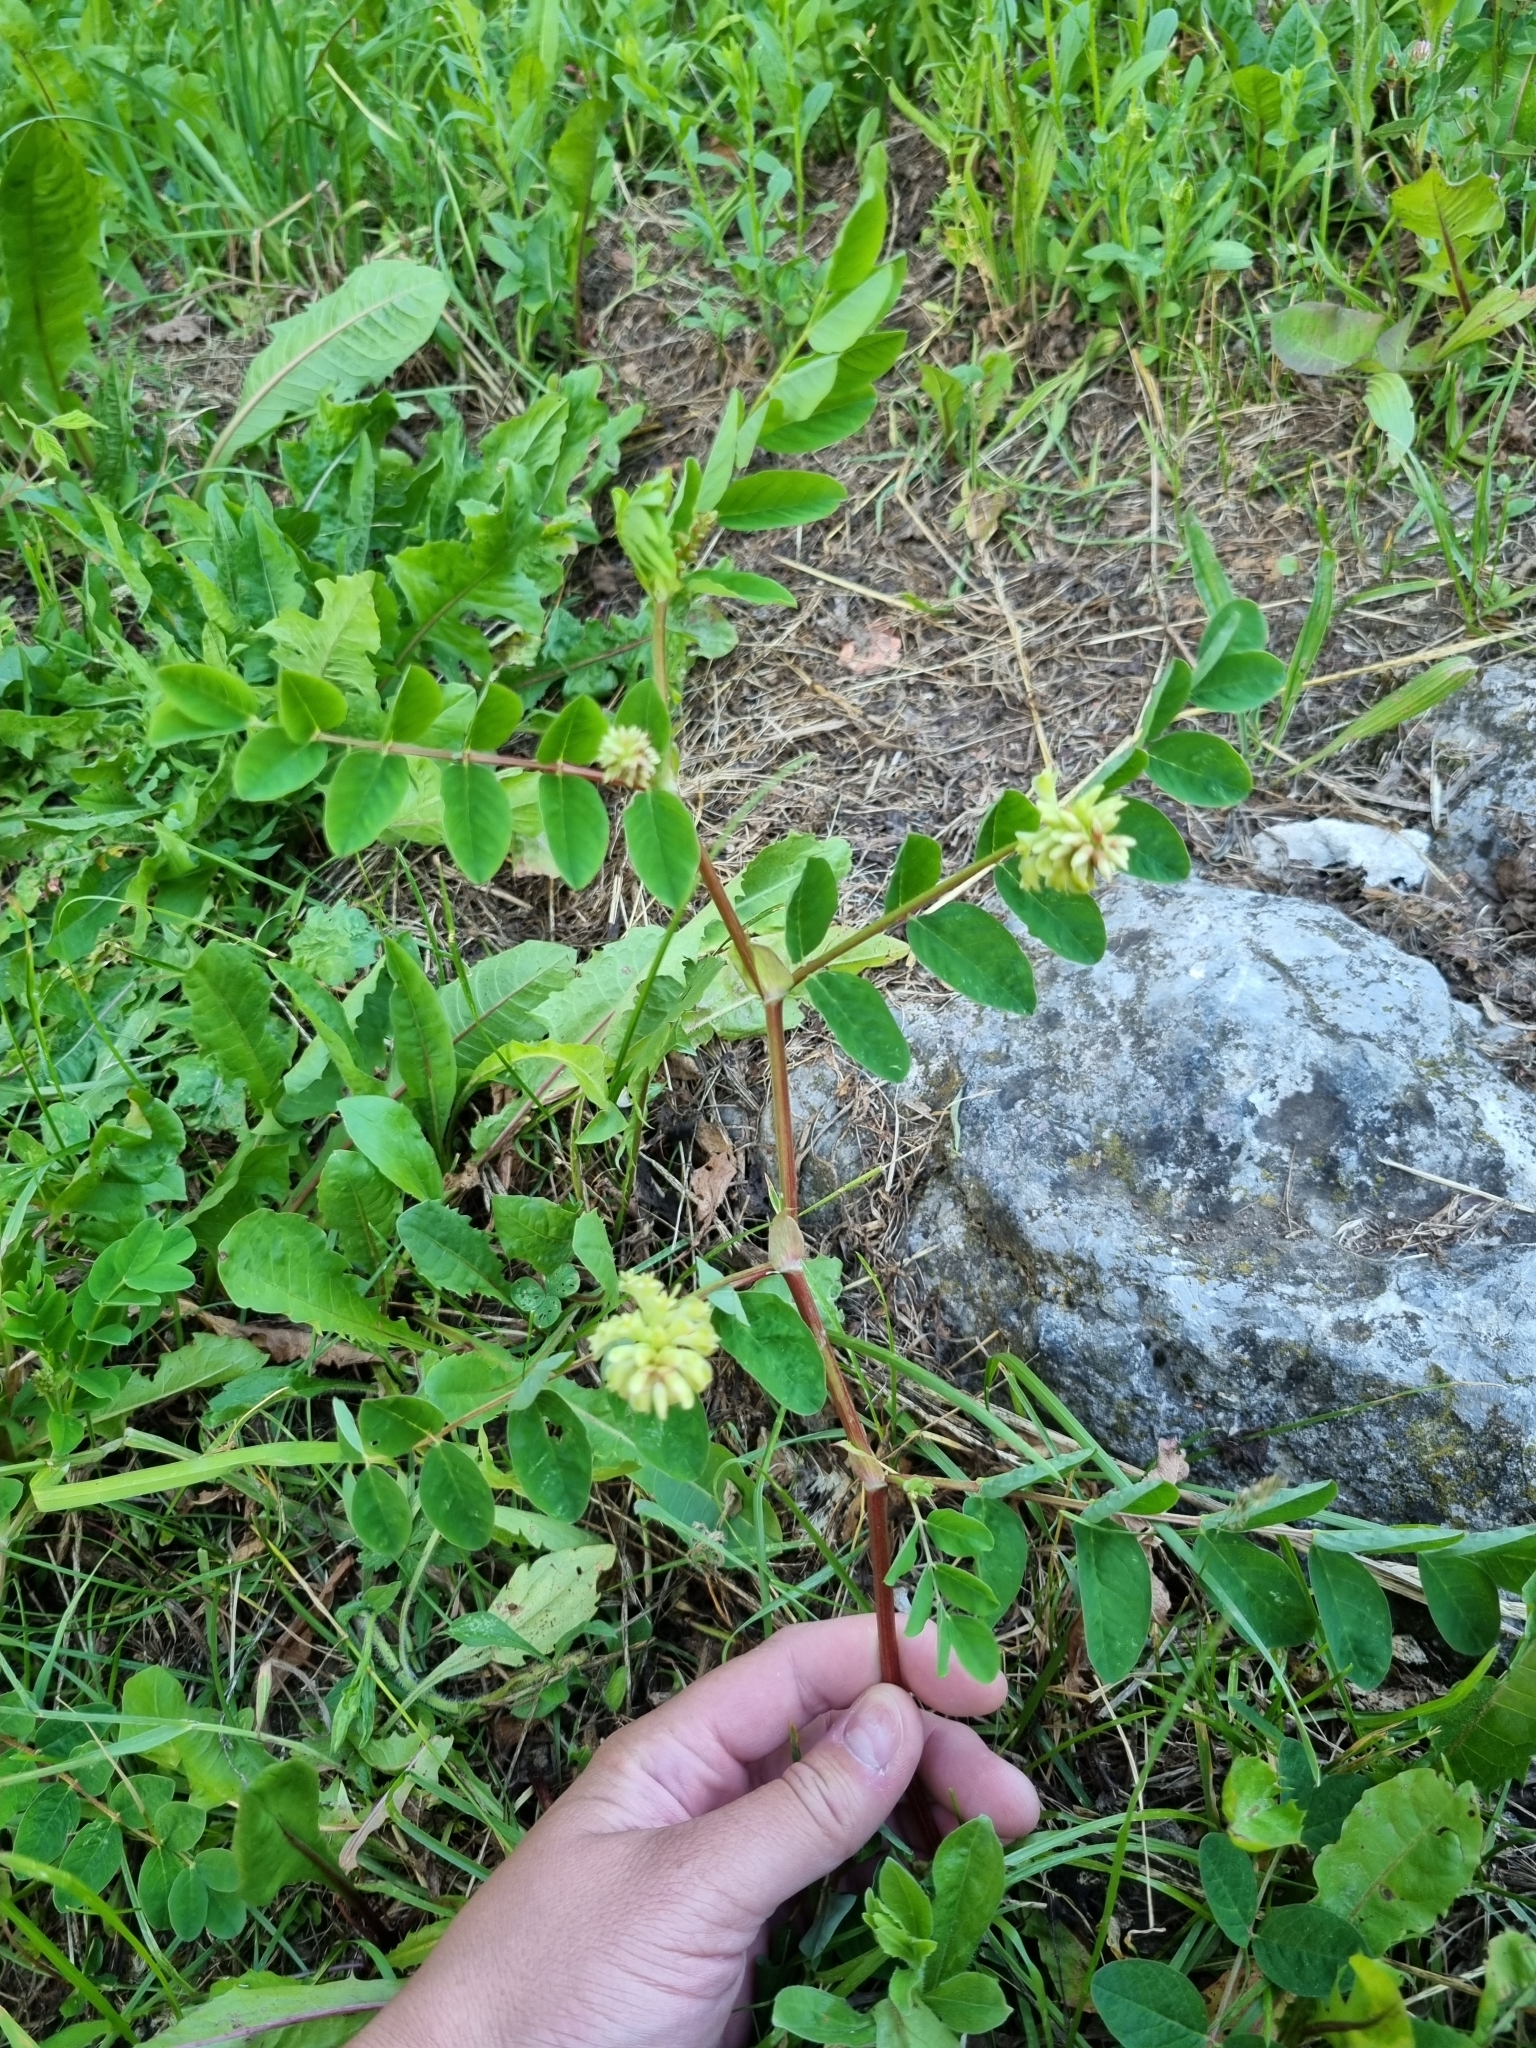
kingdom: Plantae
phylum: Tracheophyta
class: Magnoliopsida
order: Fabales
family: Fabaceae
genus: Astragalus
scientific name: Astragalus glycyphyllos
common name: Wild liquorice
